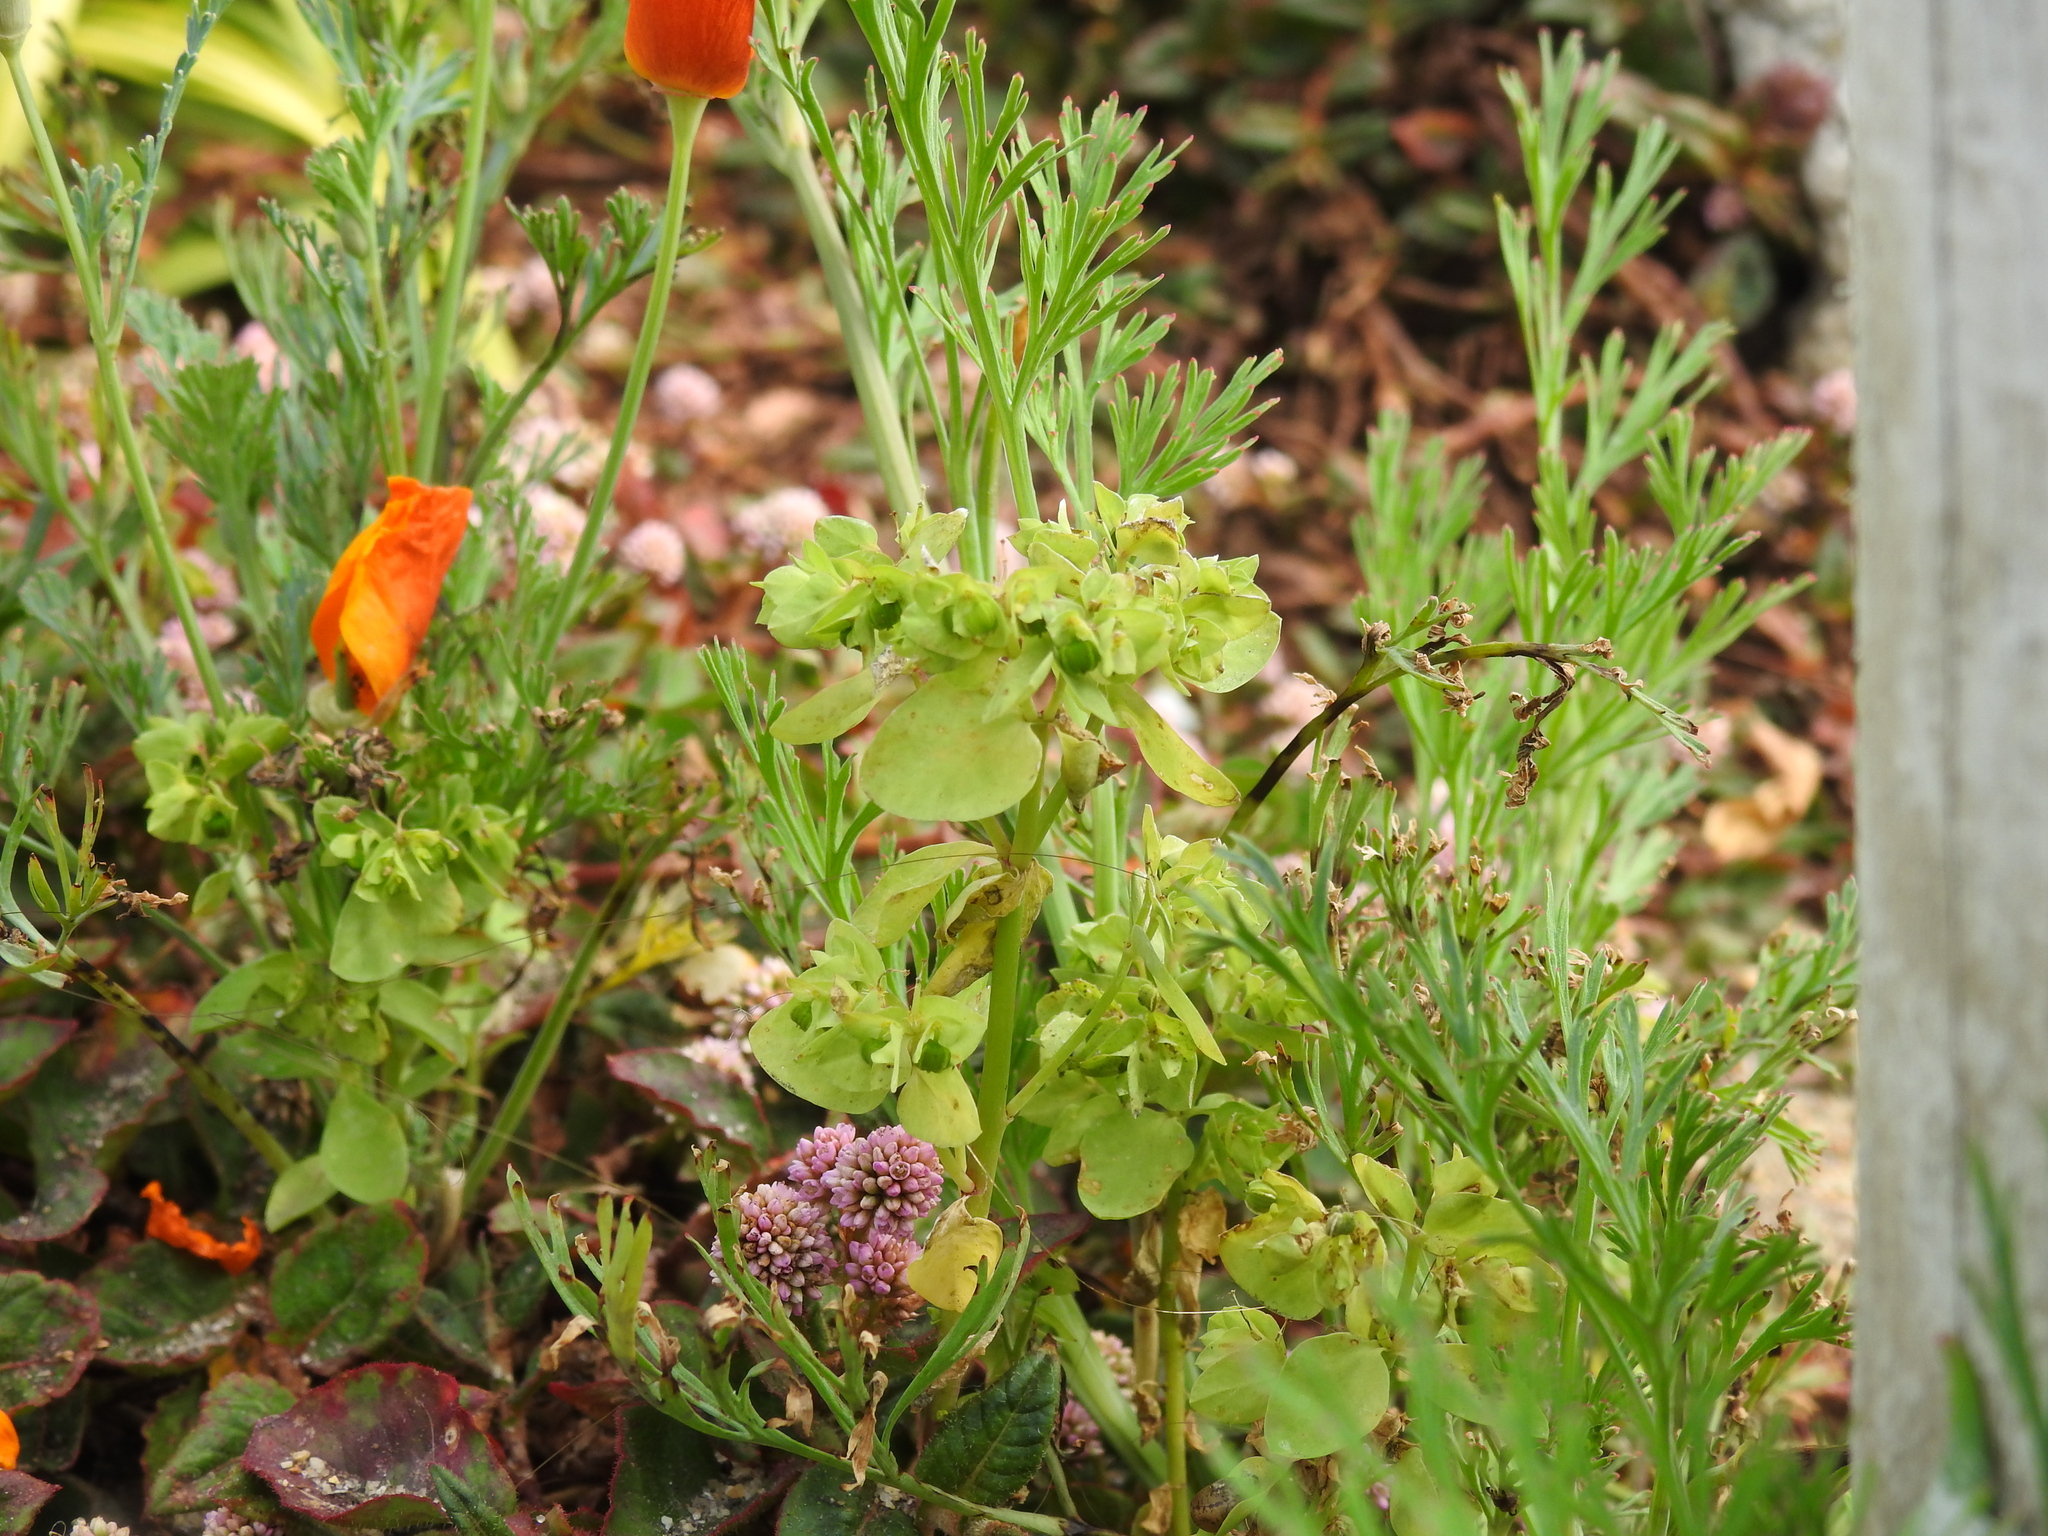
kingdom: Plantae
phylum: Tracheophyta
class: Magnoliopsida
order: Malpighiales
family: Euphorbiaceae
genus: Euphorbia
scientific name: Euphorbia peplus
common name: Petty spurge
